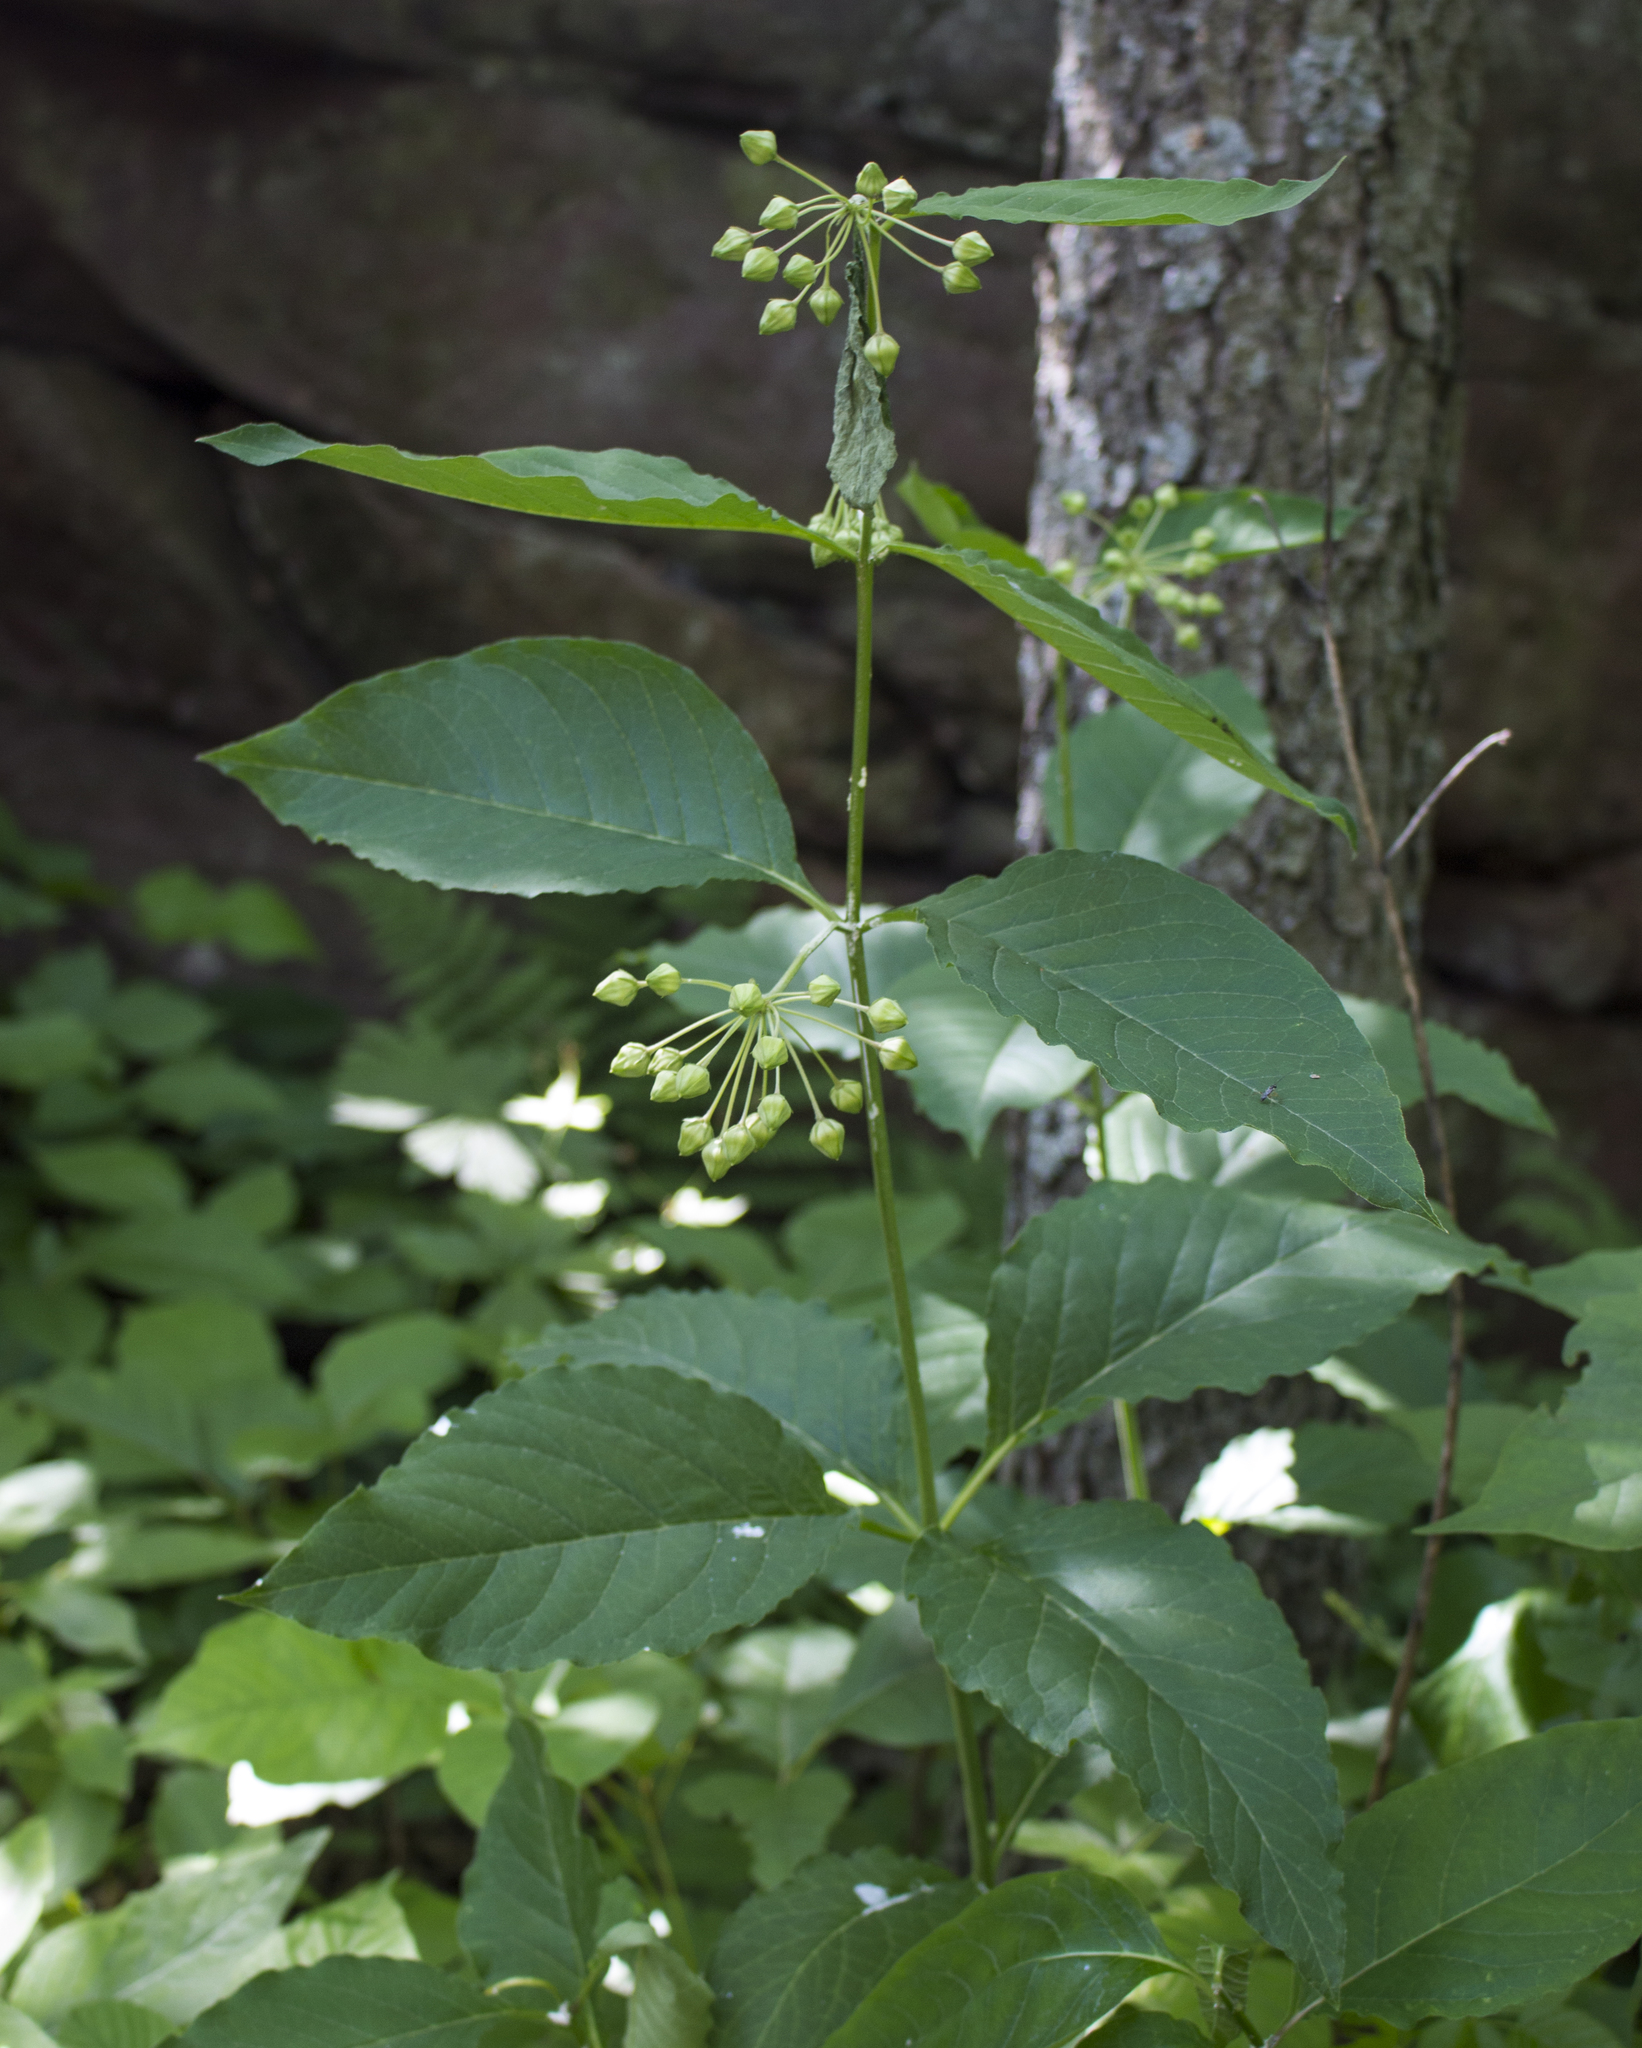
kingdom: Plantae
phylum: Tracheophyta
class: Magnoliopsida
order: Gentianales
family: Apocynaceae
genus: Asclepias
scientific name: Asclepias exaltata
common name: Poke milkweed
